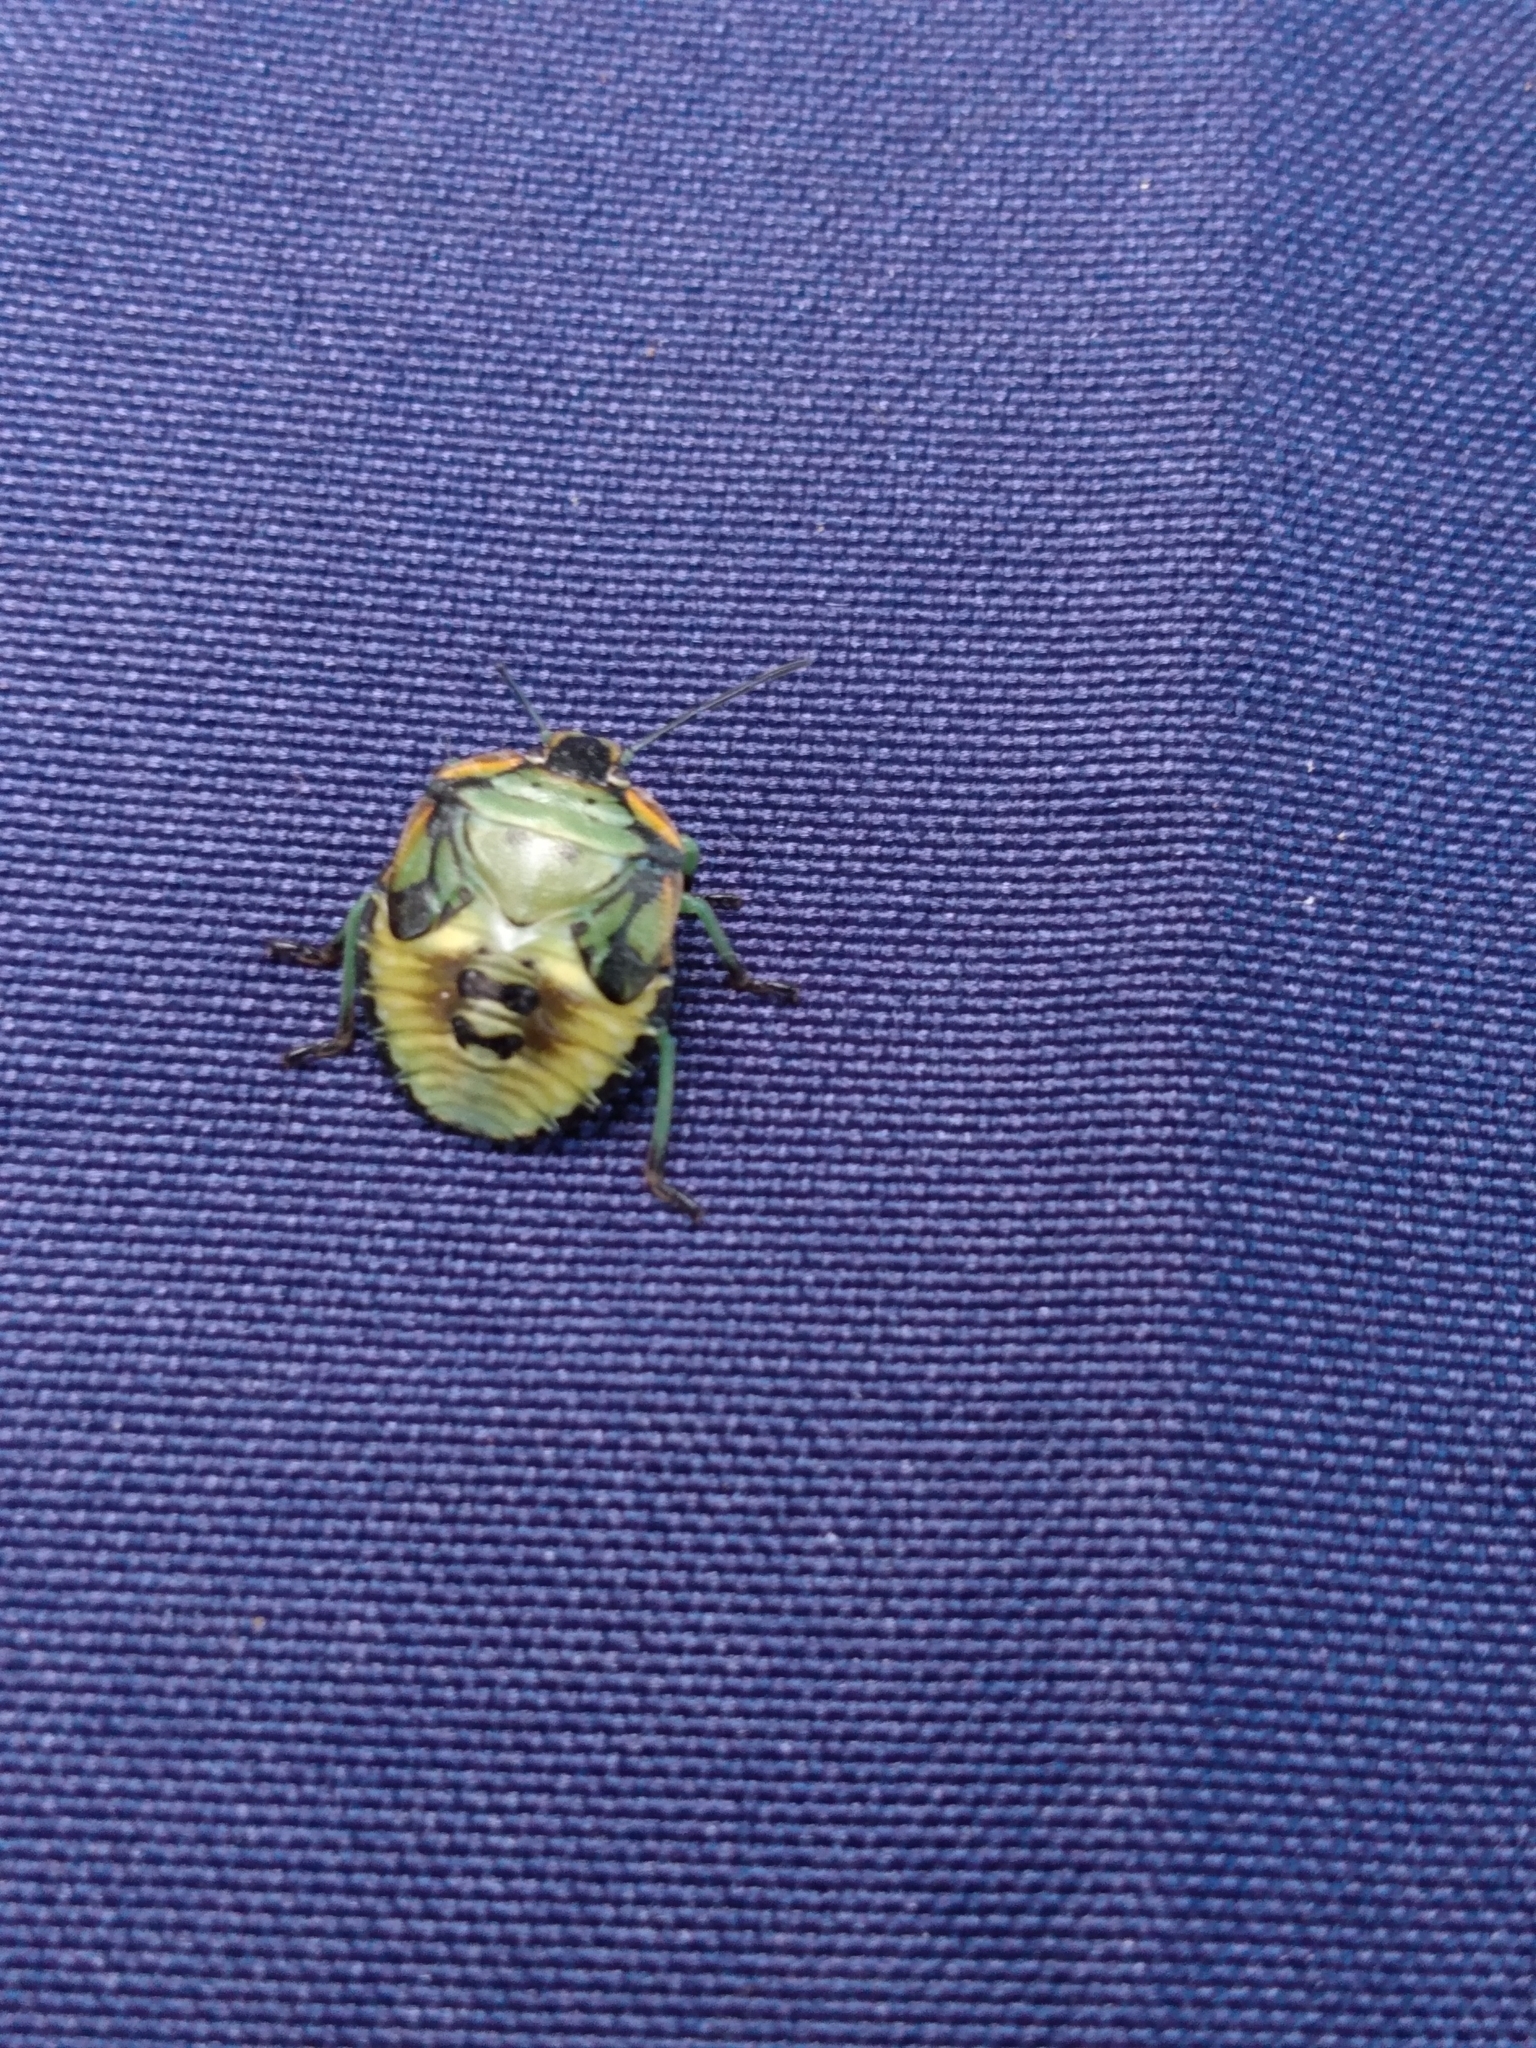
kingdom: Animalia
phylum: Arthropoda
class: Insecta
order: Hemiptera
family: Pentatomidae
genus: Chinavia
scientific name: Chinavia hilaris
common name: Green stink bug
